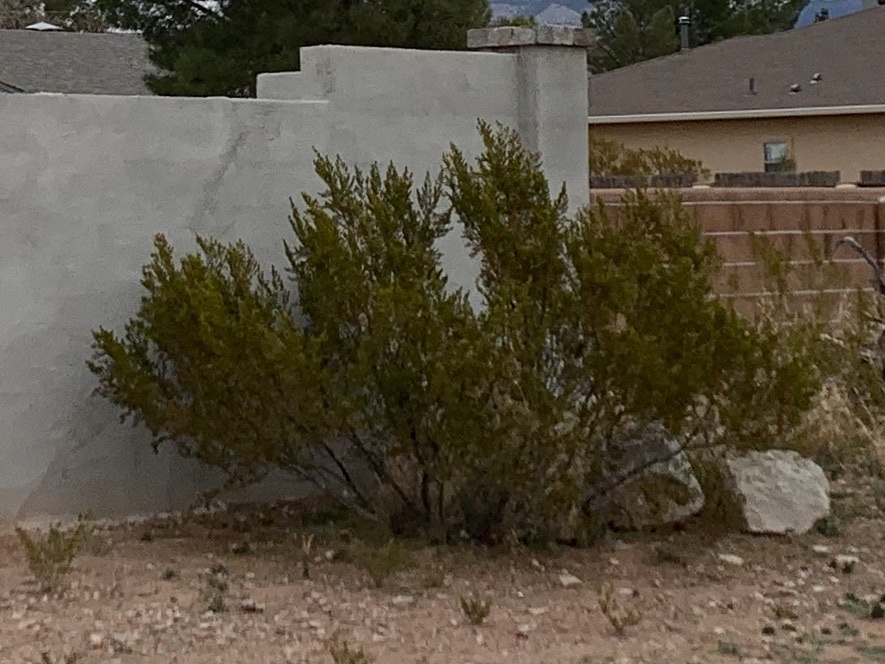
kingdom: Plantae
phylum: Tracheophyta
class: Magnoliopsida
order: Zygophyllales
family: Zygophyllaceae
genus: Larrea
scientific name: Larrea tridentata
